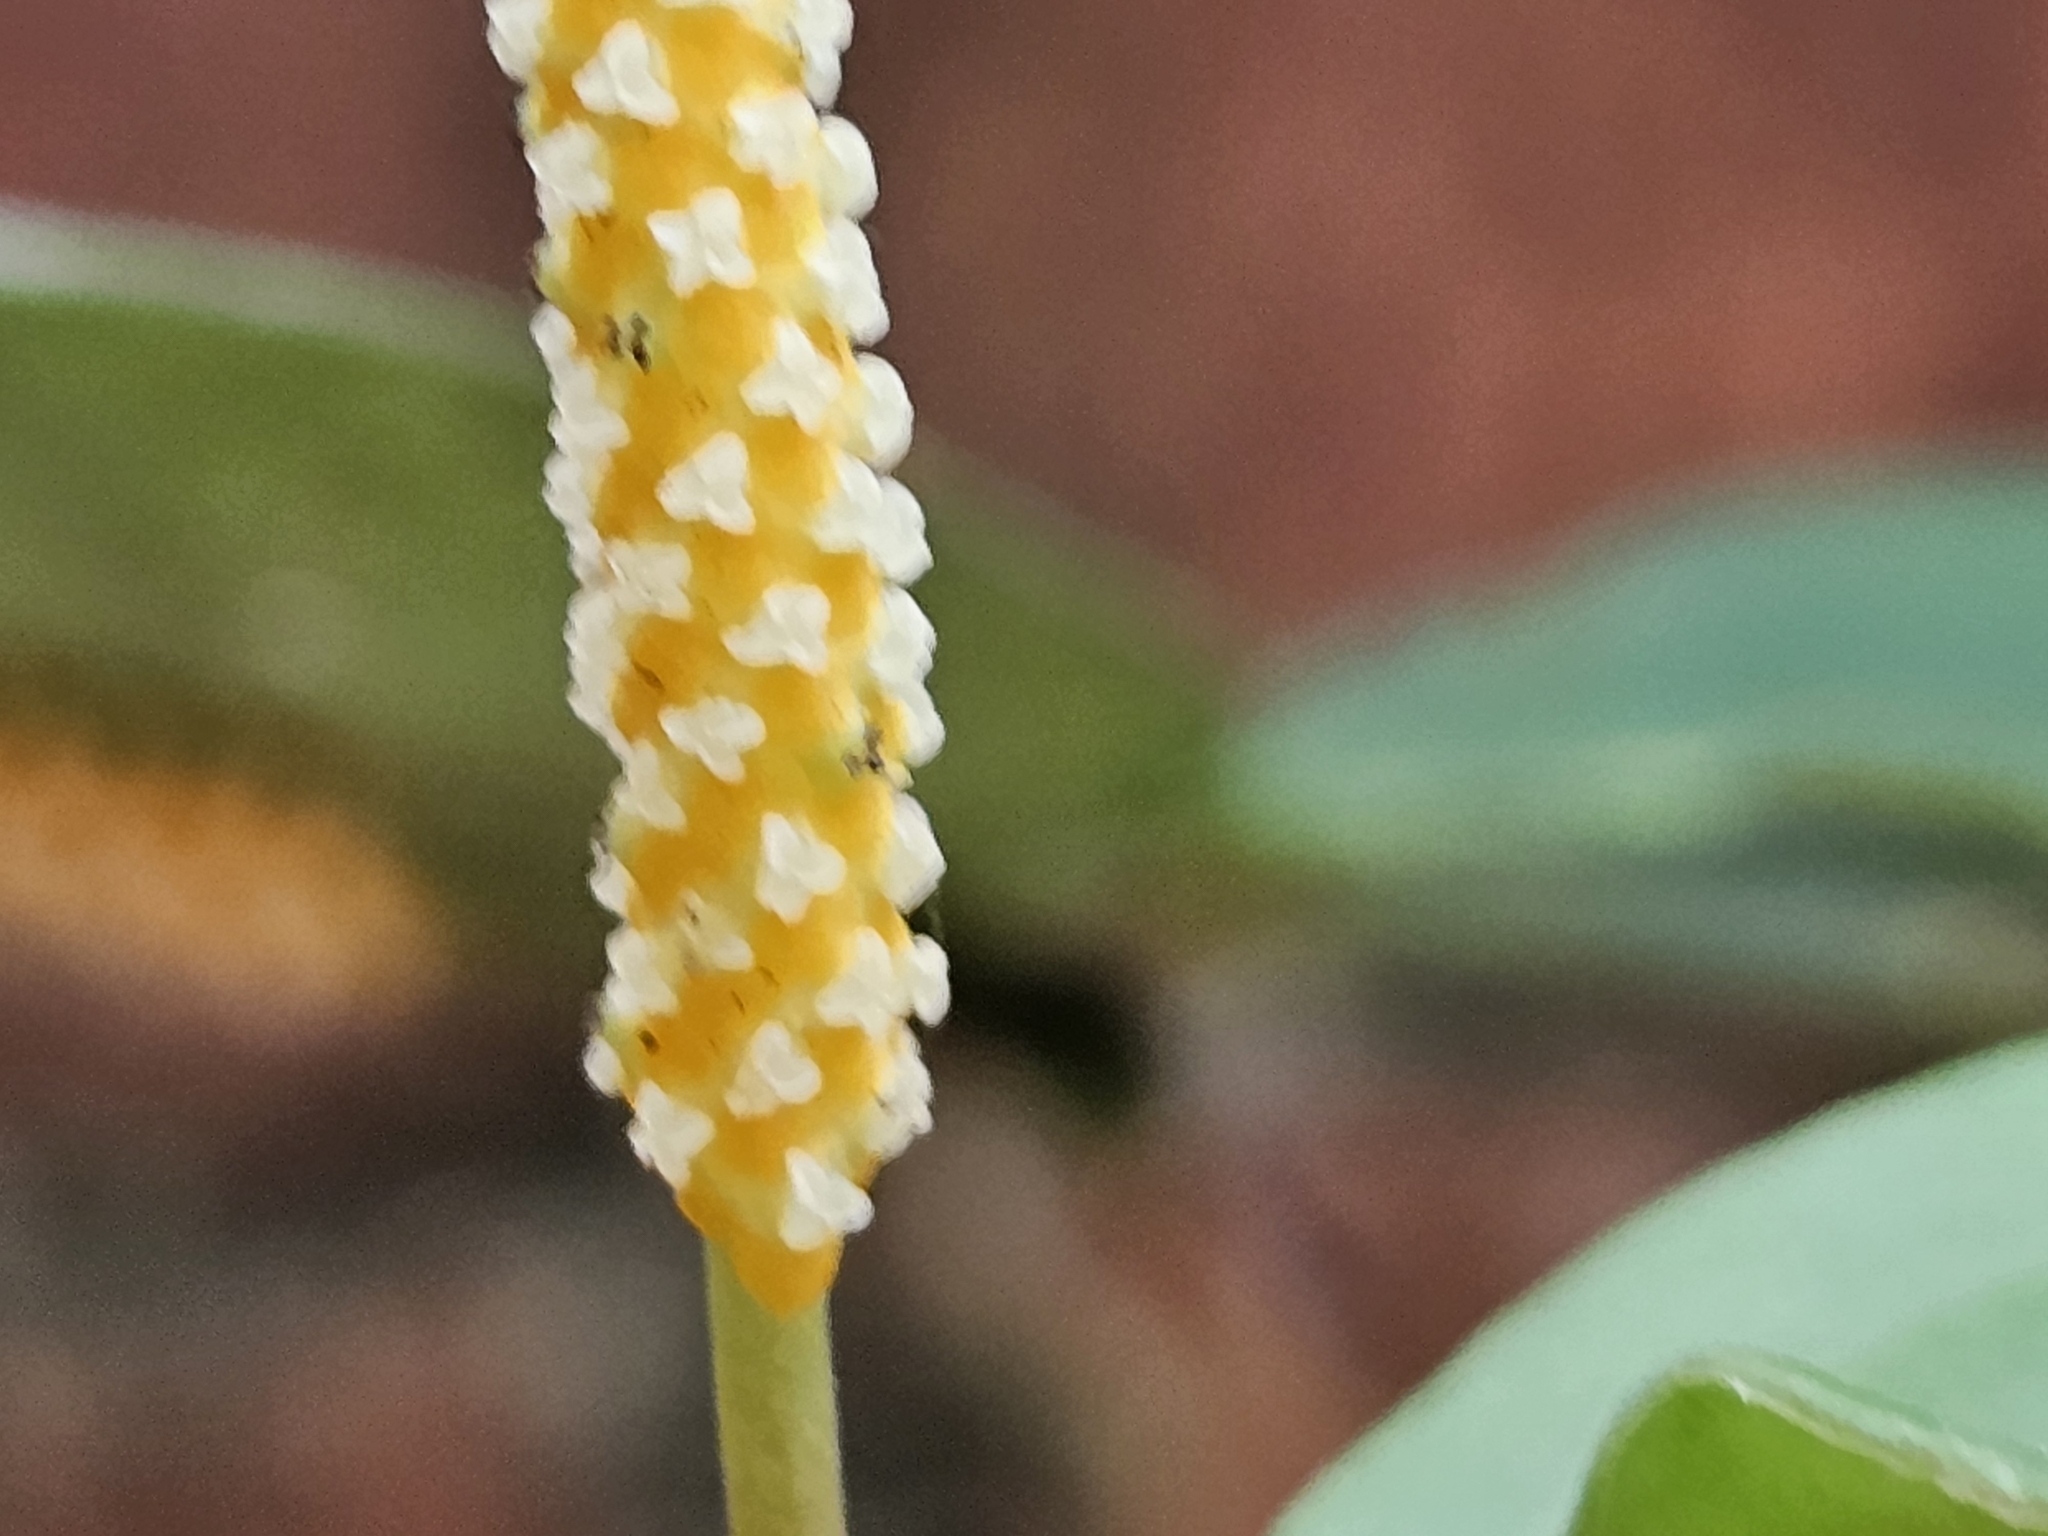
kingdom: Plantae
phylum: Tracheophyta
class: Magnoliopsida
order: Piperales
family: Piperaceae
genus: Piper
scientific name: Piper kadsura
